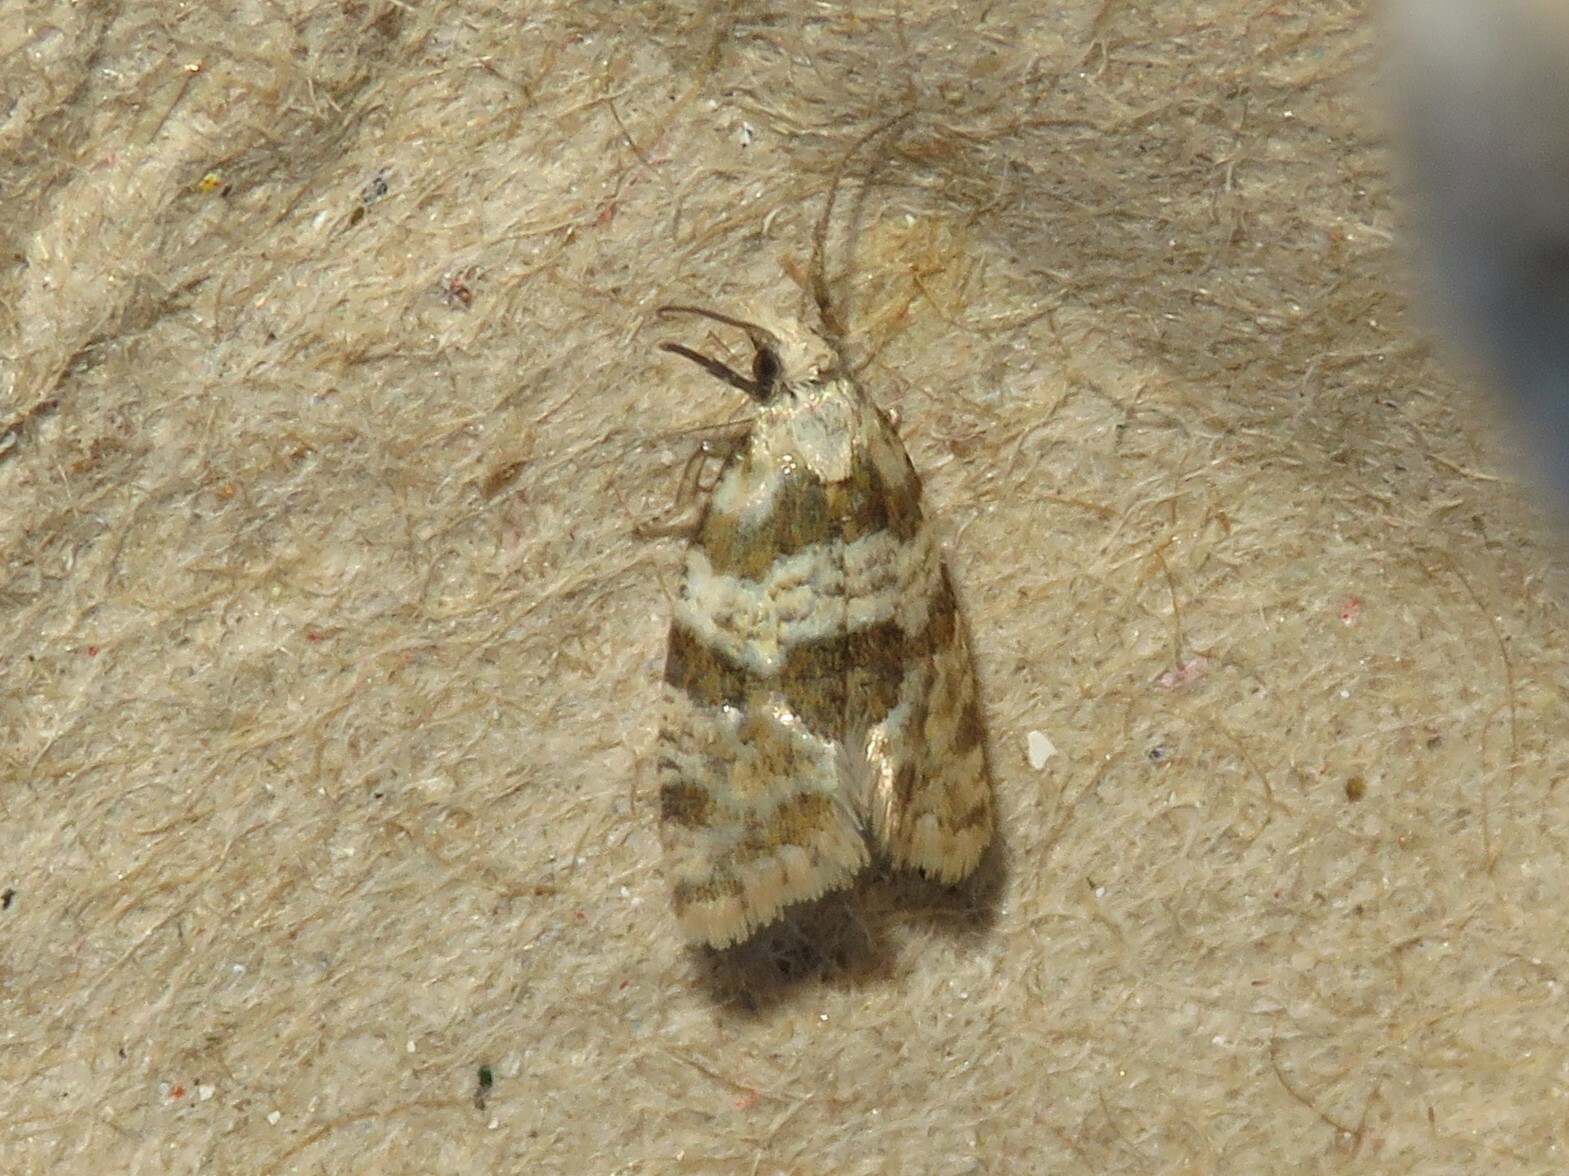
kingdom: Animalia
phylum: Arthropoda
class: Insecta
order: Lepidoptera
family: Tortricidae
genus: Aethes
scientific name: Aethes argentilimitana
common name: Silver-bordered aethes
